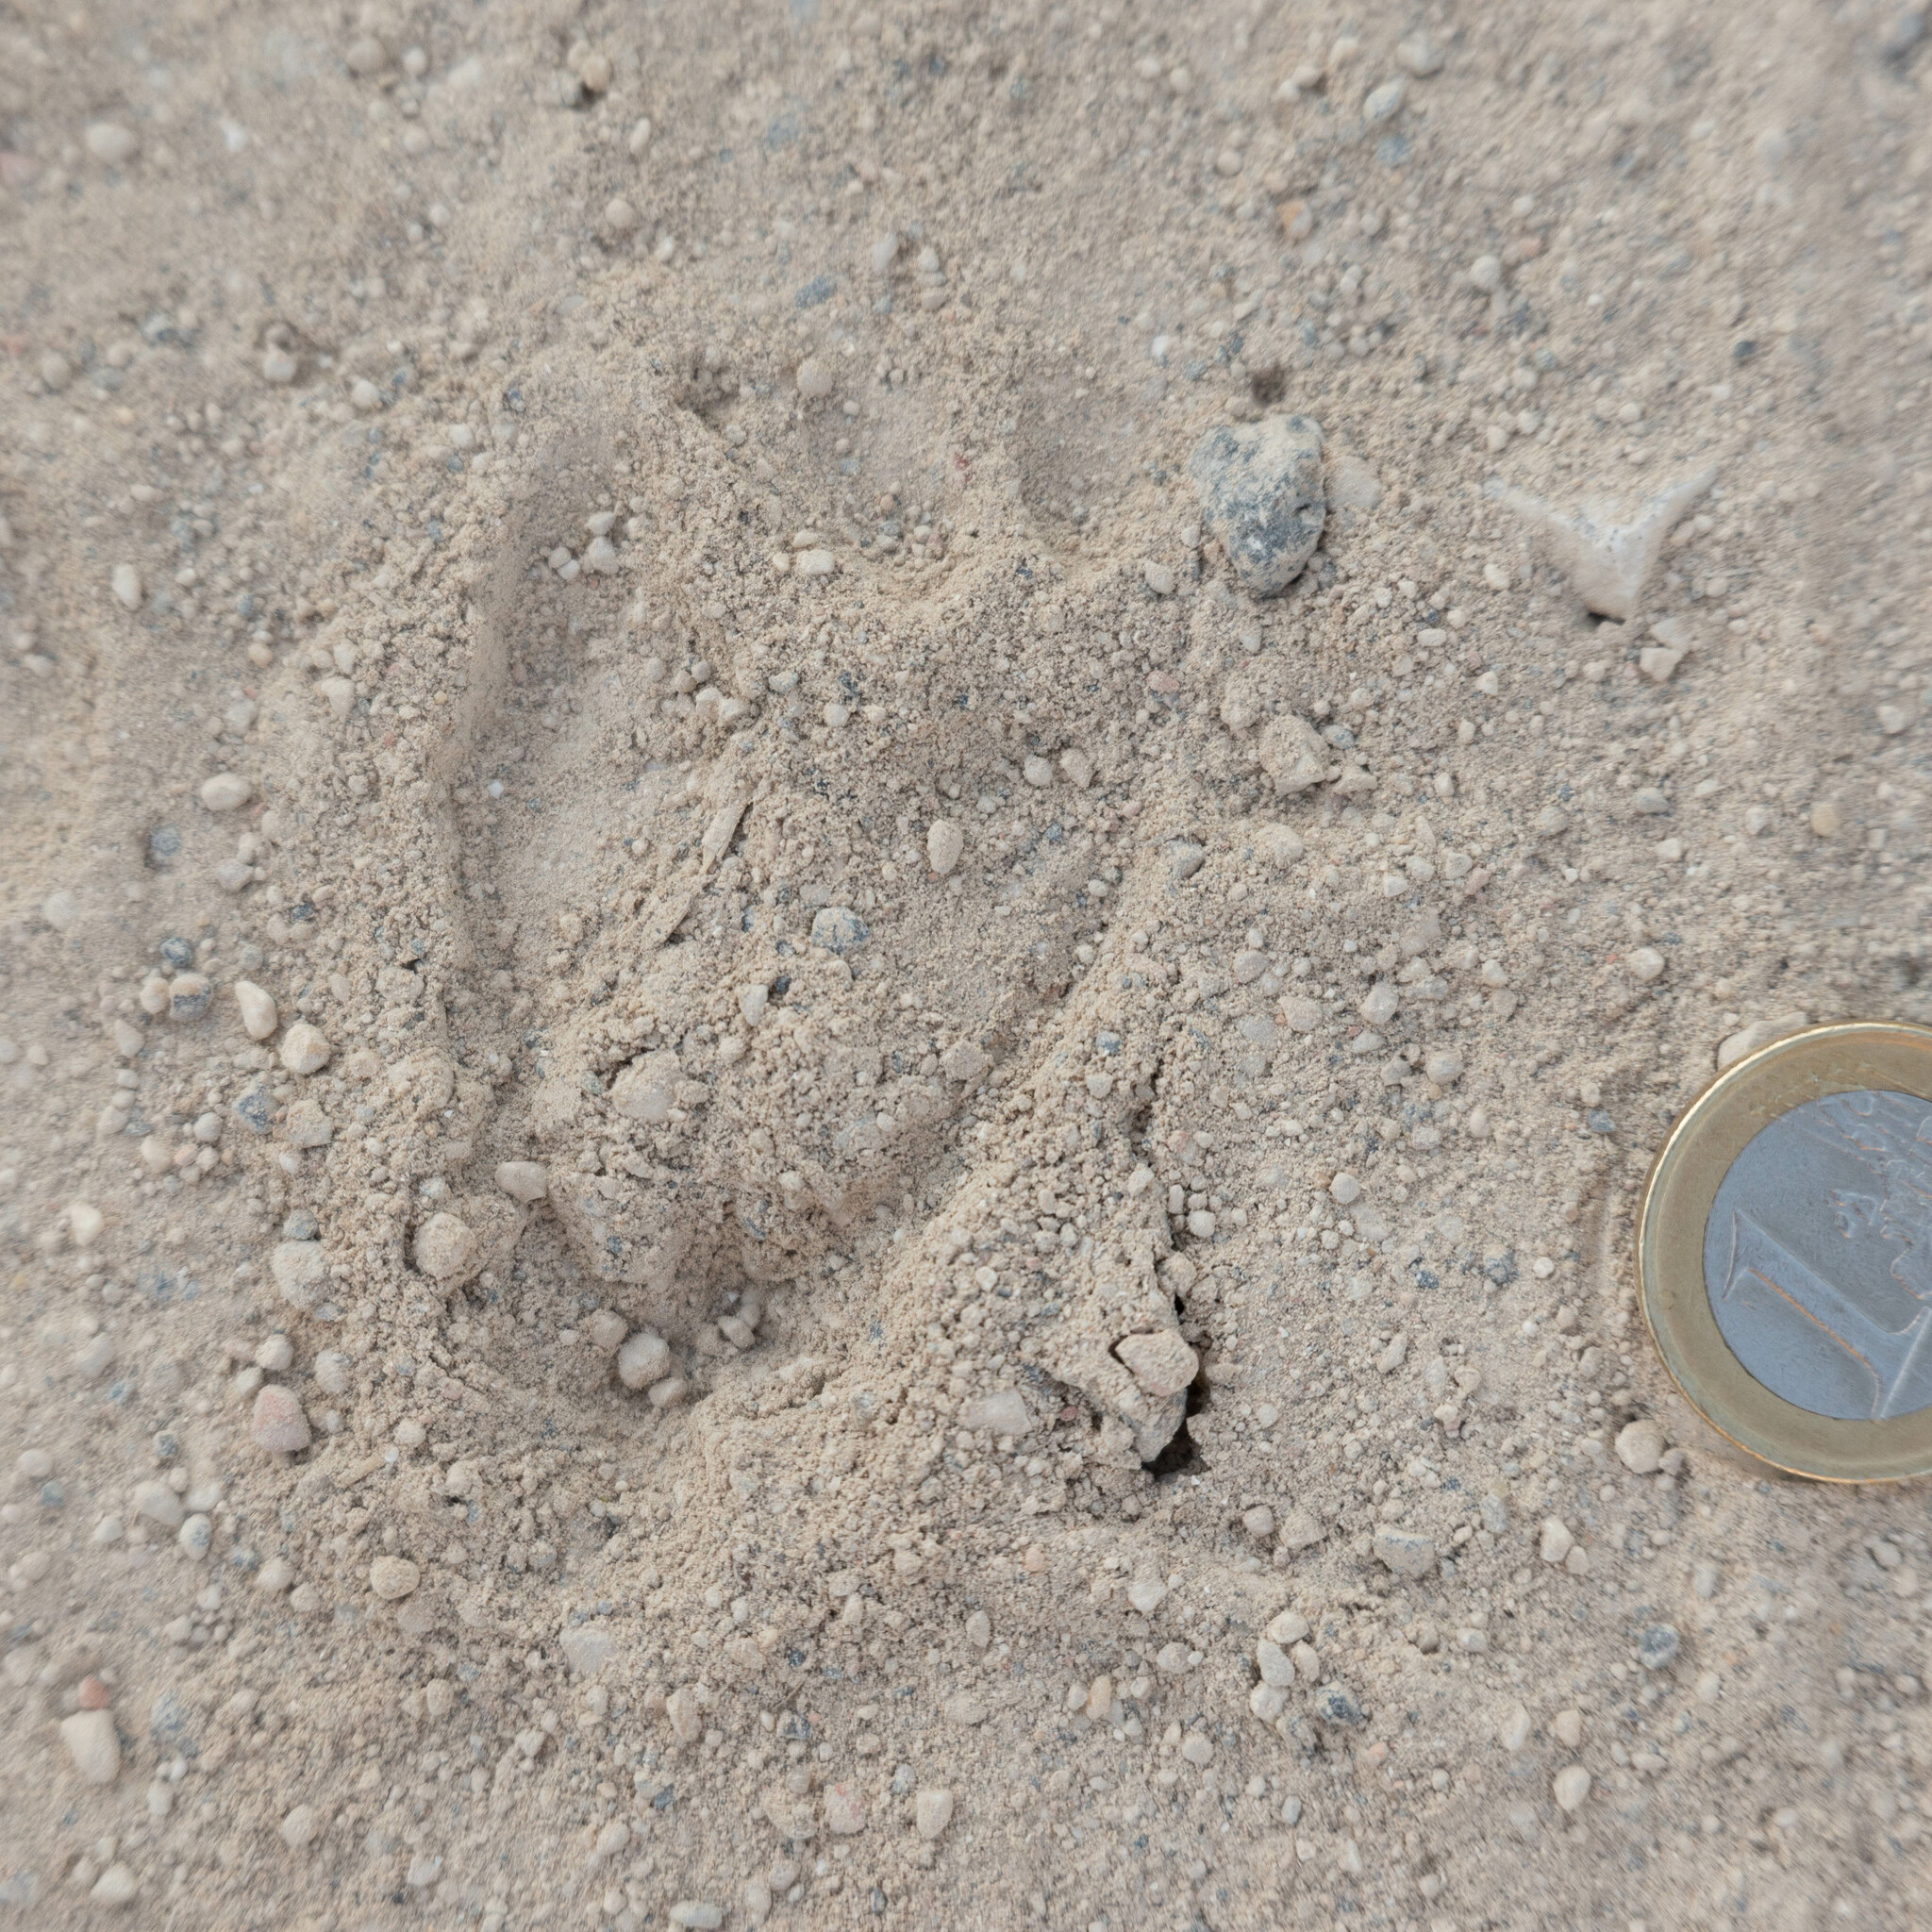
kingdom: Animalia
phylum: Chordata
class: Mammalia
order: Artiodactyla
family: Cervidae
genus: Capreolus
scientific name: Capreolus capreolus
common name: Western roe deer
